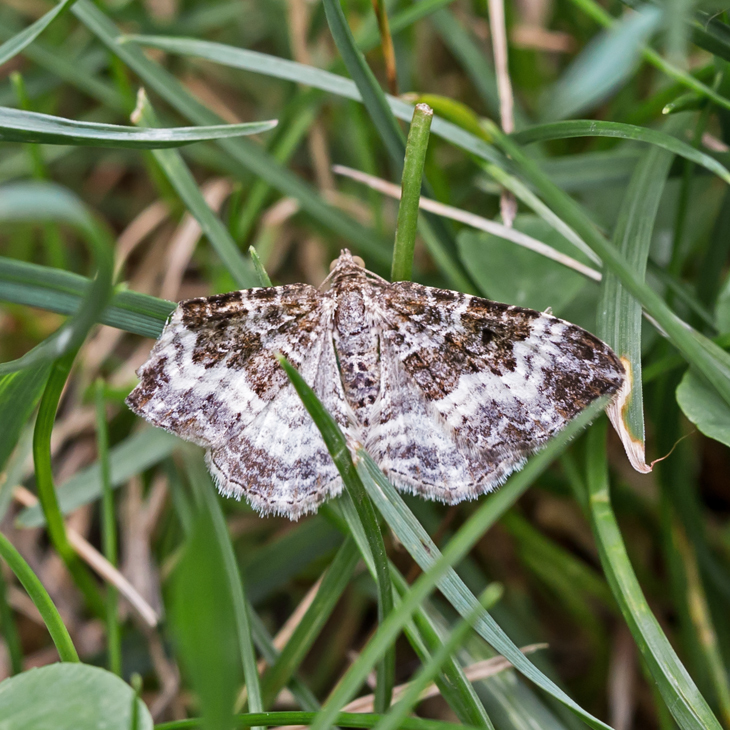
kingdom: Animalia
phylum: Arthropoda
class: Insecta
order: Lepidoptera
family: Geometridae
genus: Epirrhoe
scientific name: Epirrhoe alternata
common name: Common carpet
